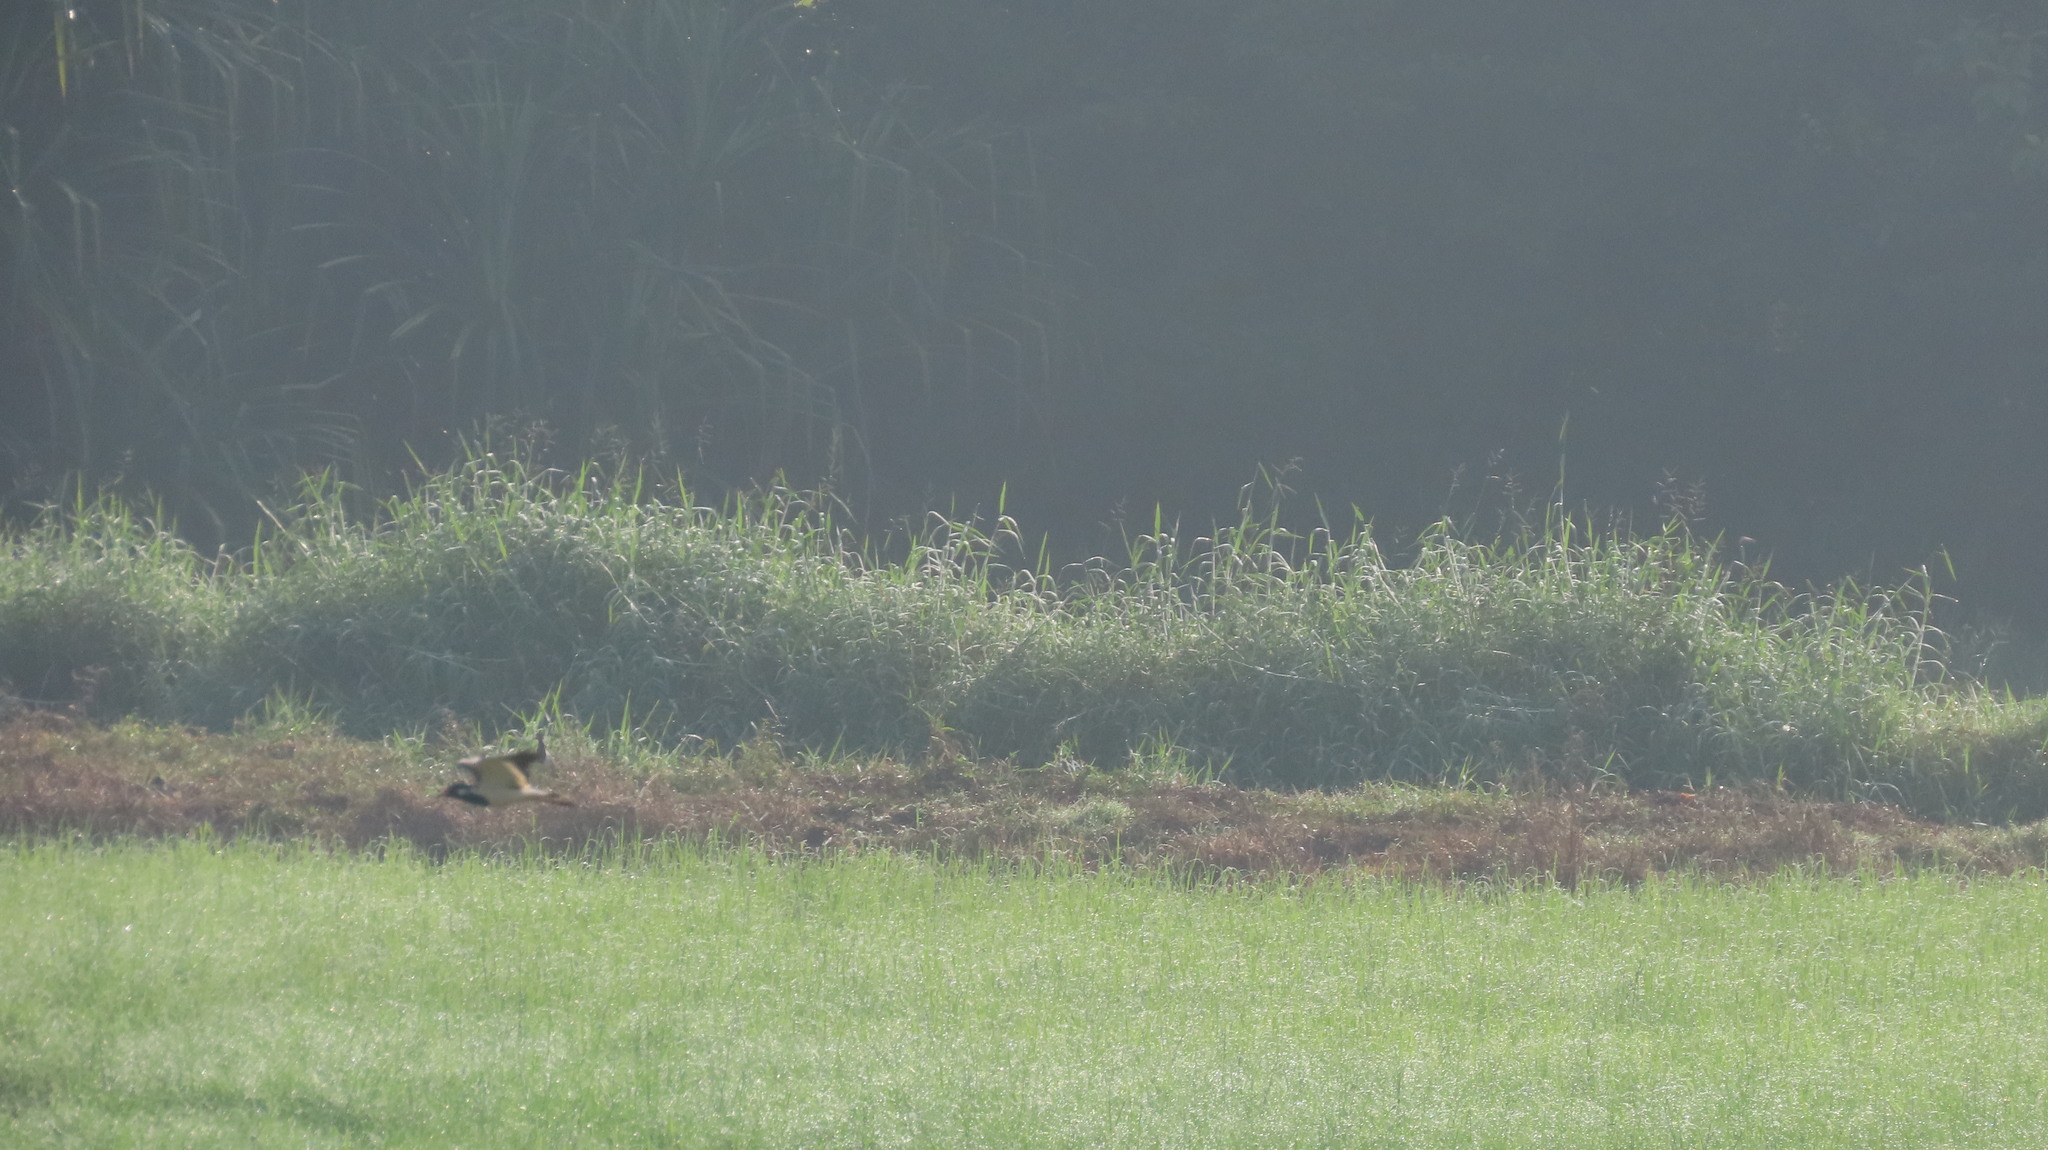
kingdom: Animalia
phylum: Chordata
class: Aves
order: Charadriiformes
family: Charadriidae
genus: Vanellus
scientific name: Vanellus indicus
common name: Red-wattled lapwing
